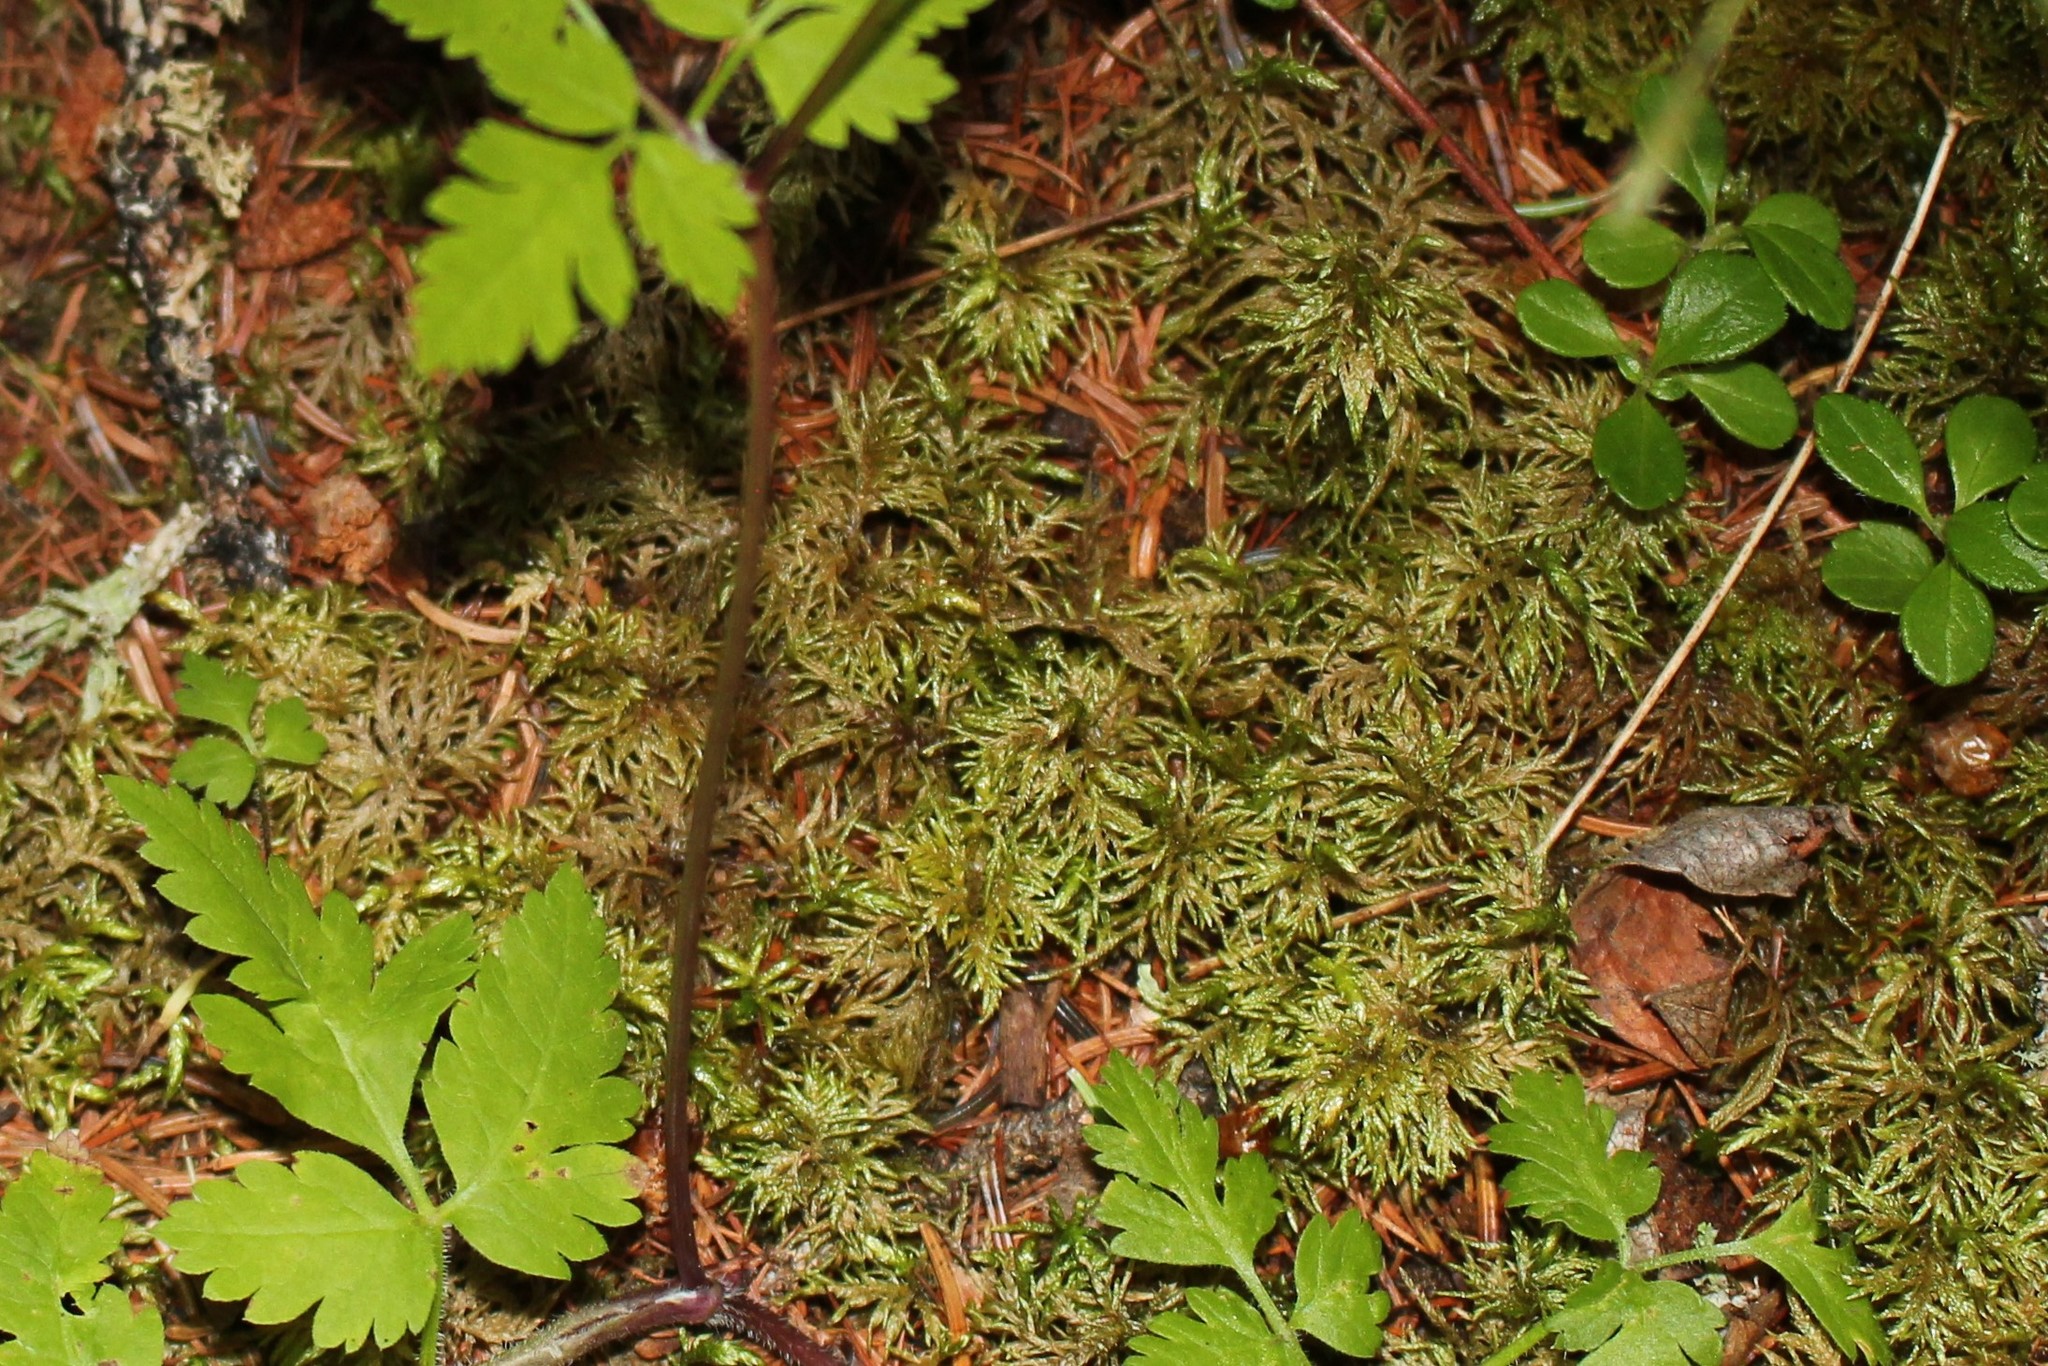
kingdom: Plantae
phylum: Bryophyta
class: Bryopsida
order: Hypnales
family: Hylocomiaceae
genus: Hylocomium
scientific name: Hylocomium splendens
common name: Stairstep moss
